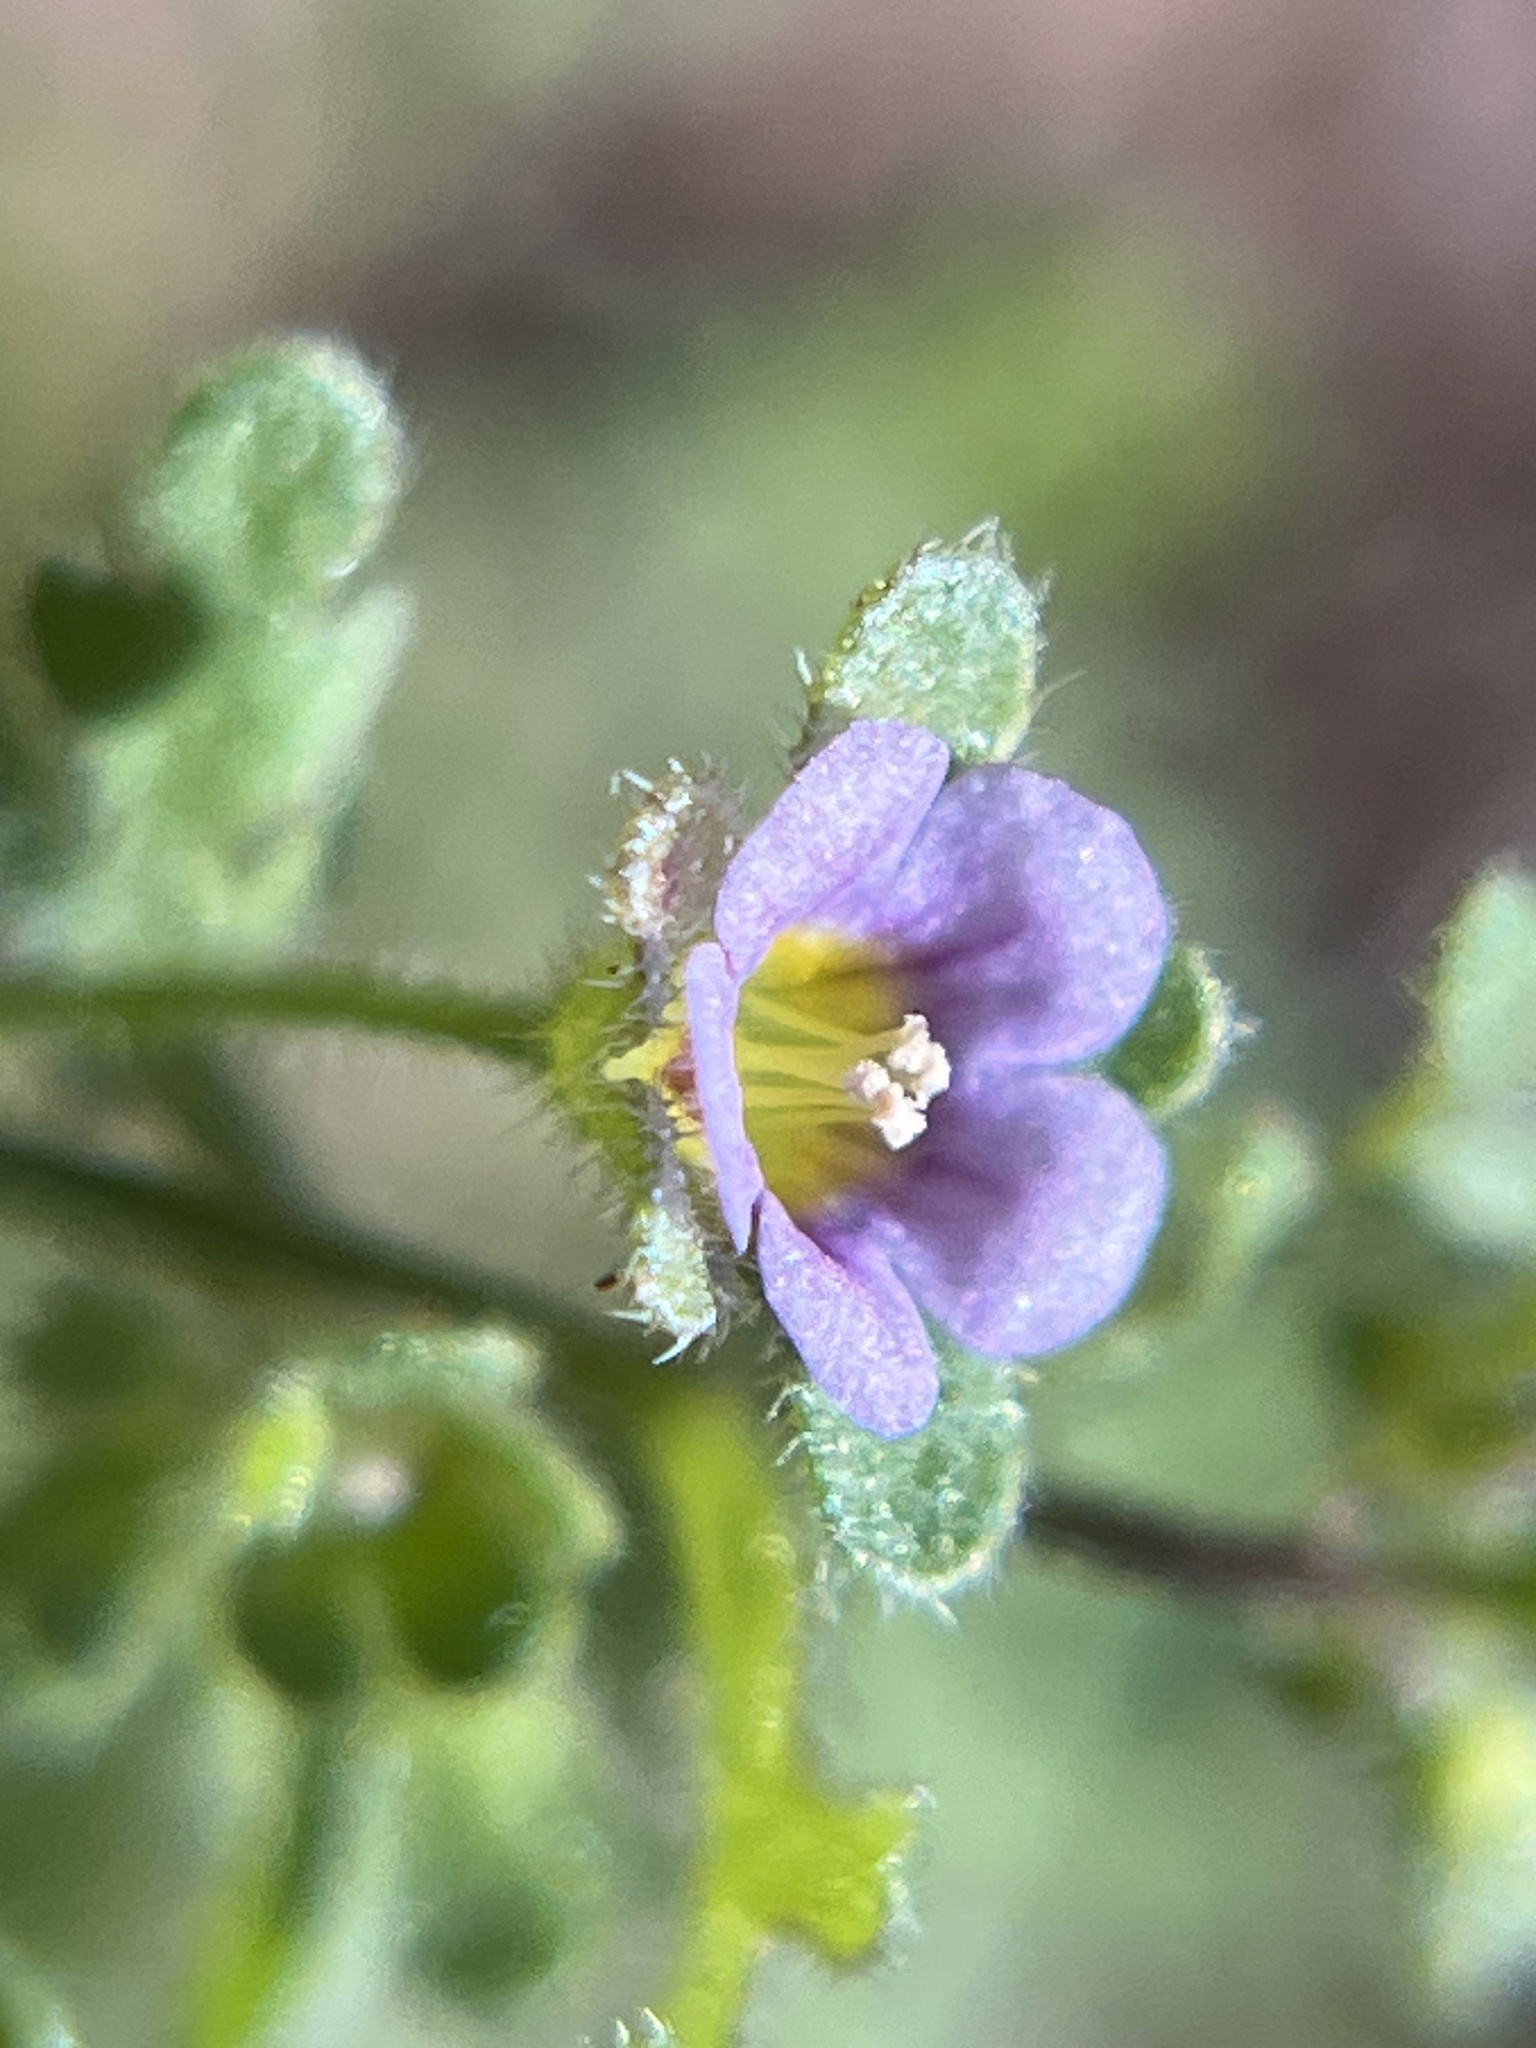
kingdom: Plantae
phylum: Tracheophyta
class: Magnoliopsida
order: Boraginales
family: Hydrophyllaceae
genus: Eucrypta
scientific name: Eucrypta micrantha
